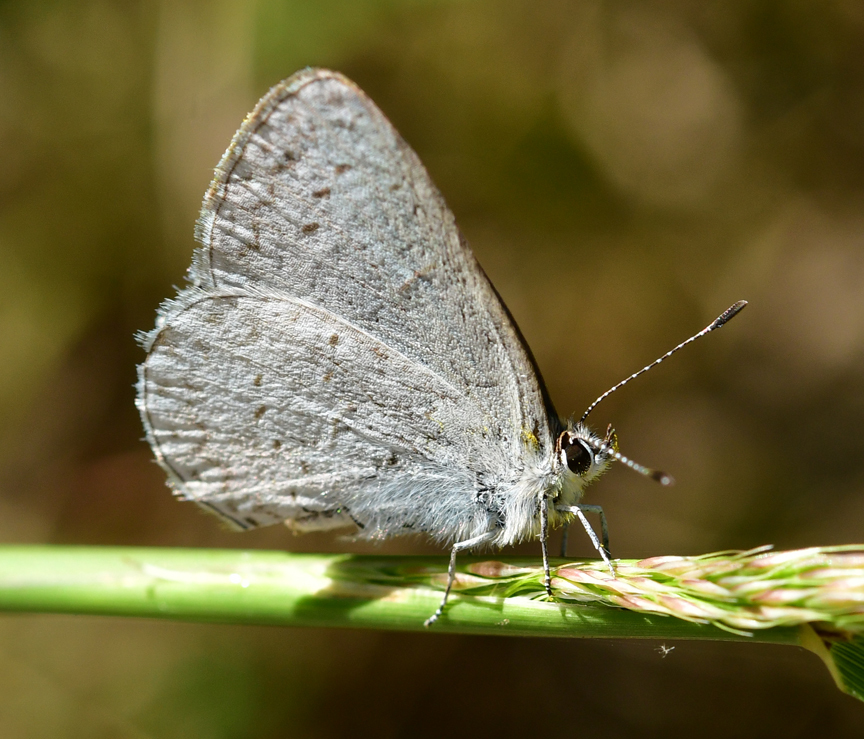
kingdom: Animalia
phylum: Arthropoda
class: Insecta
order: Lepidoptera
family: Lycaenidae
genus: Celastrina
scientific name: Celastrina ladon
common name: Spring azure
